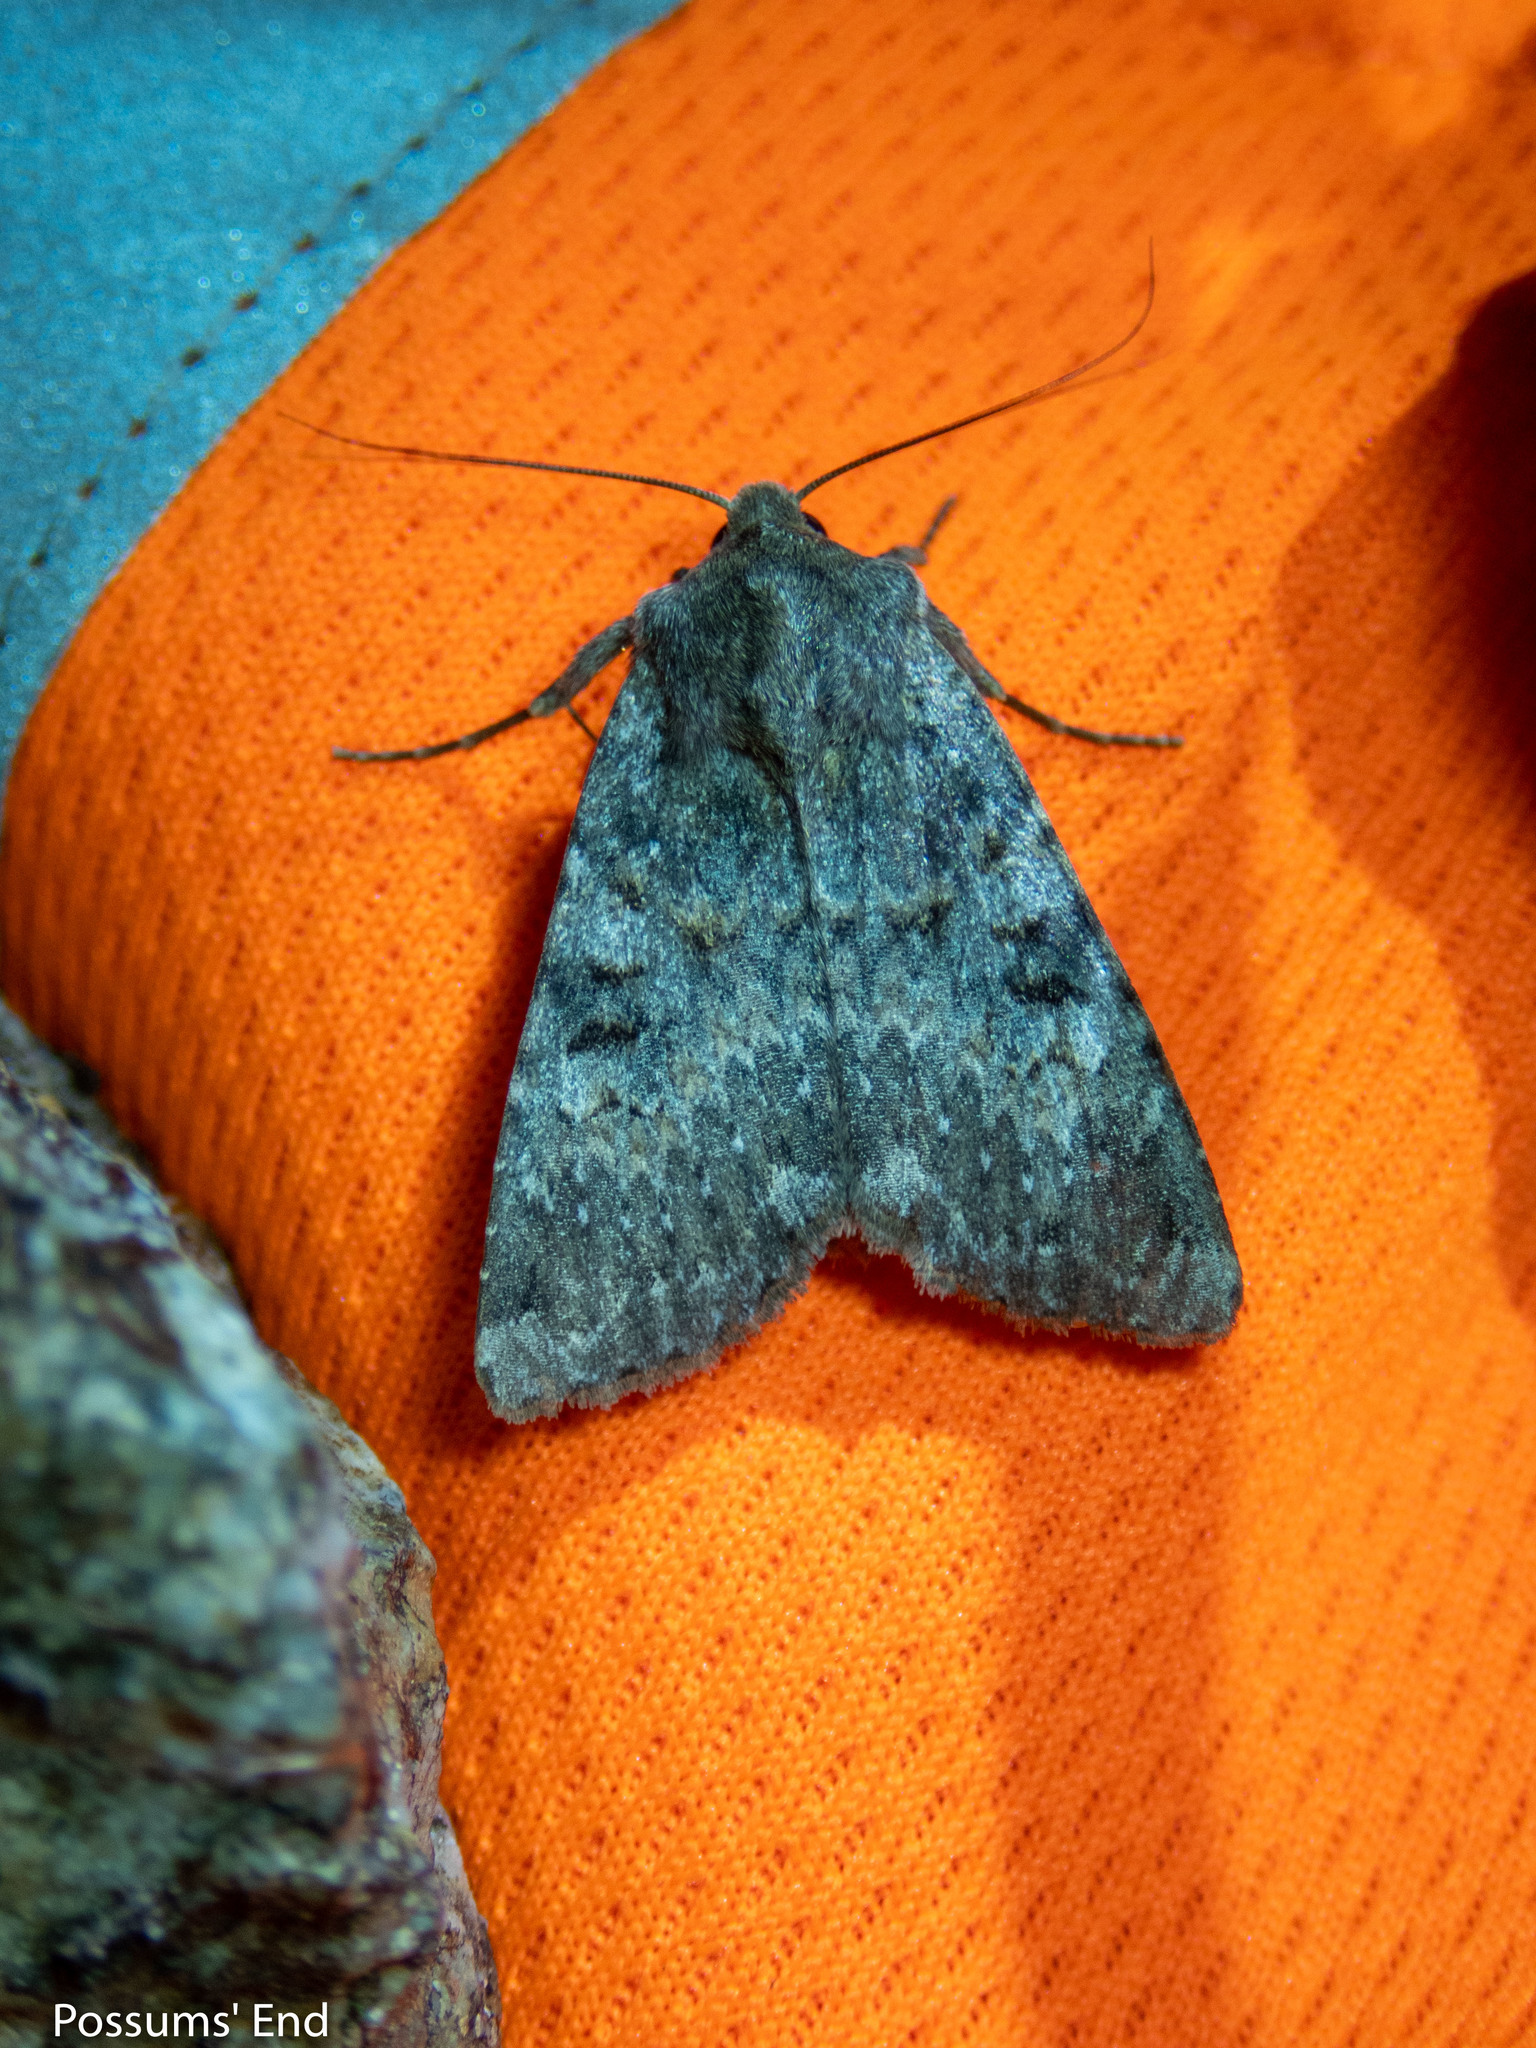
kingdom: Animalia
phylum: Arthropoda
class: Insecta
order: Lepidoptera
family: Noctuidae
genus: Ichneutica
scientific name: Ichneutica
